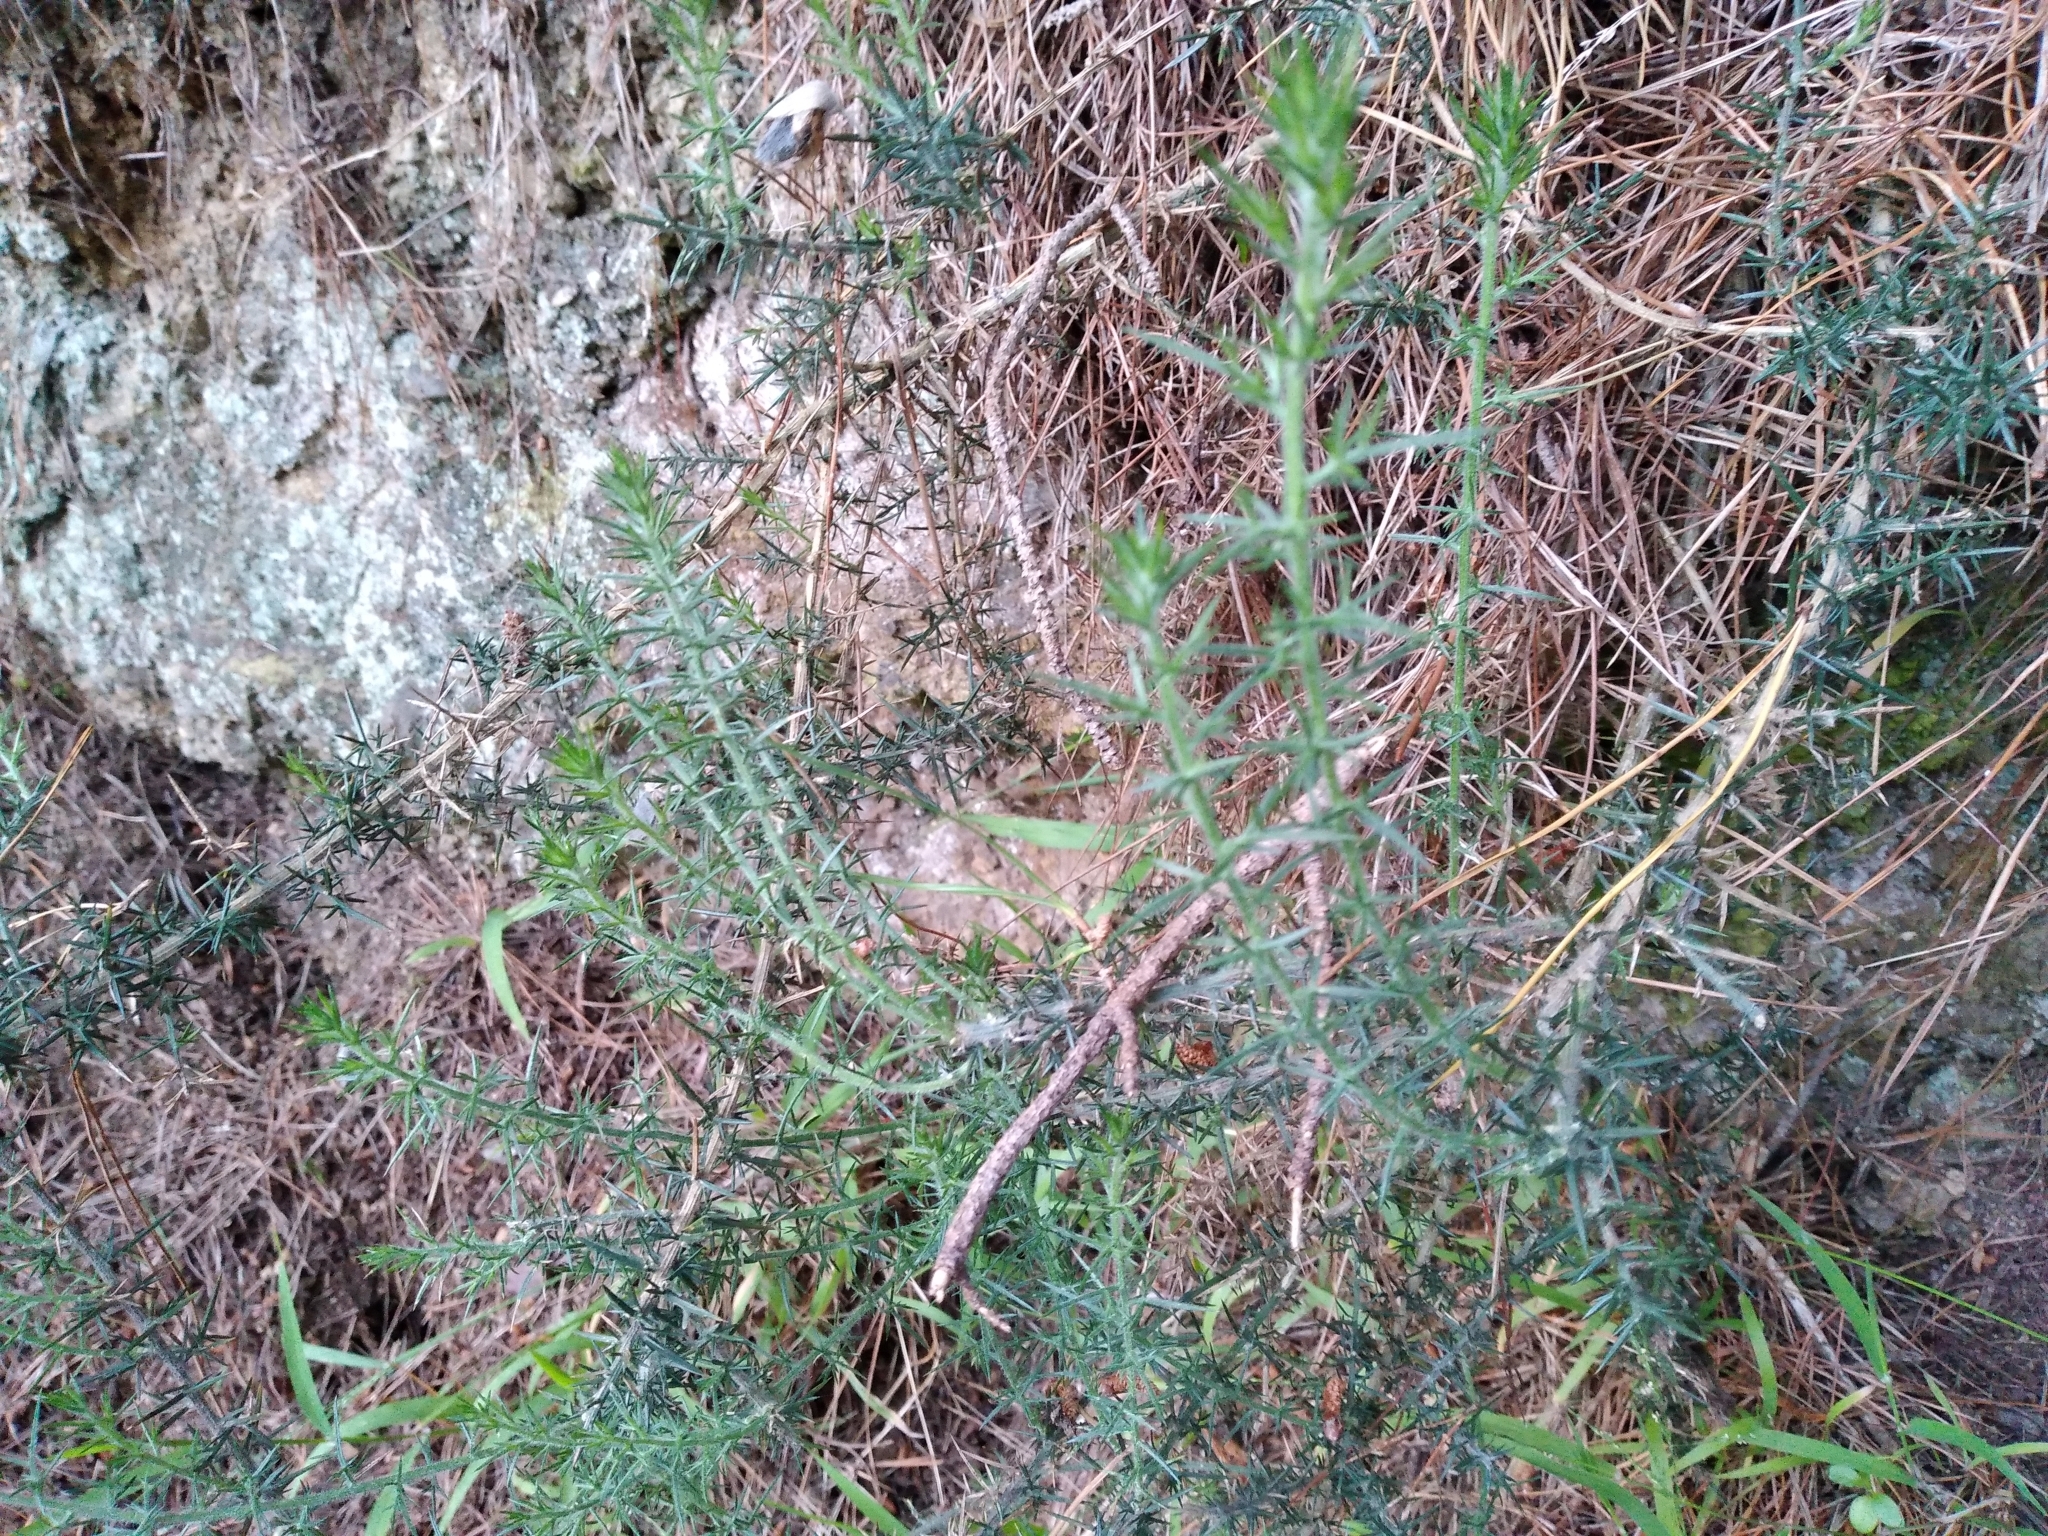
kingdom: Plantae
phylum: Tracheophyta
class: Magnoliopsida
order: Fabales
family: Fabaceae
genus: Ulex
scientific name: Ulex europaeus
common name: Common gorse
